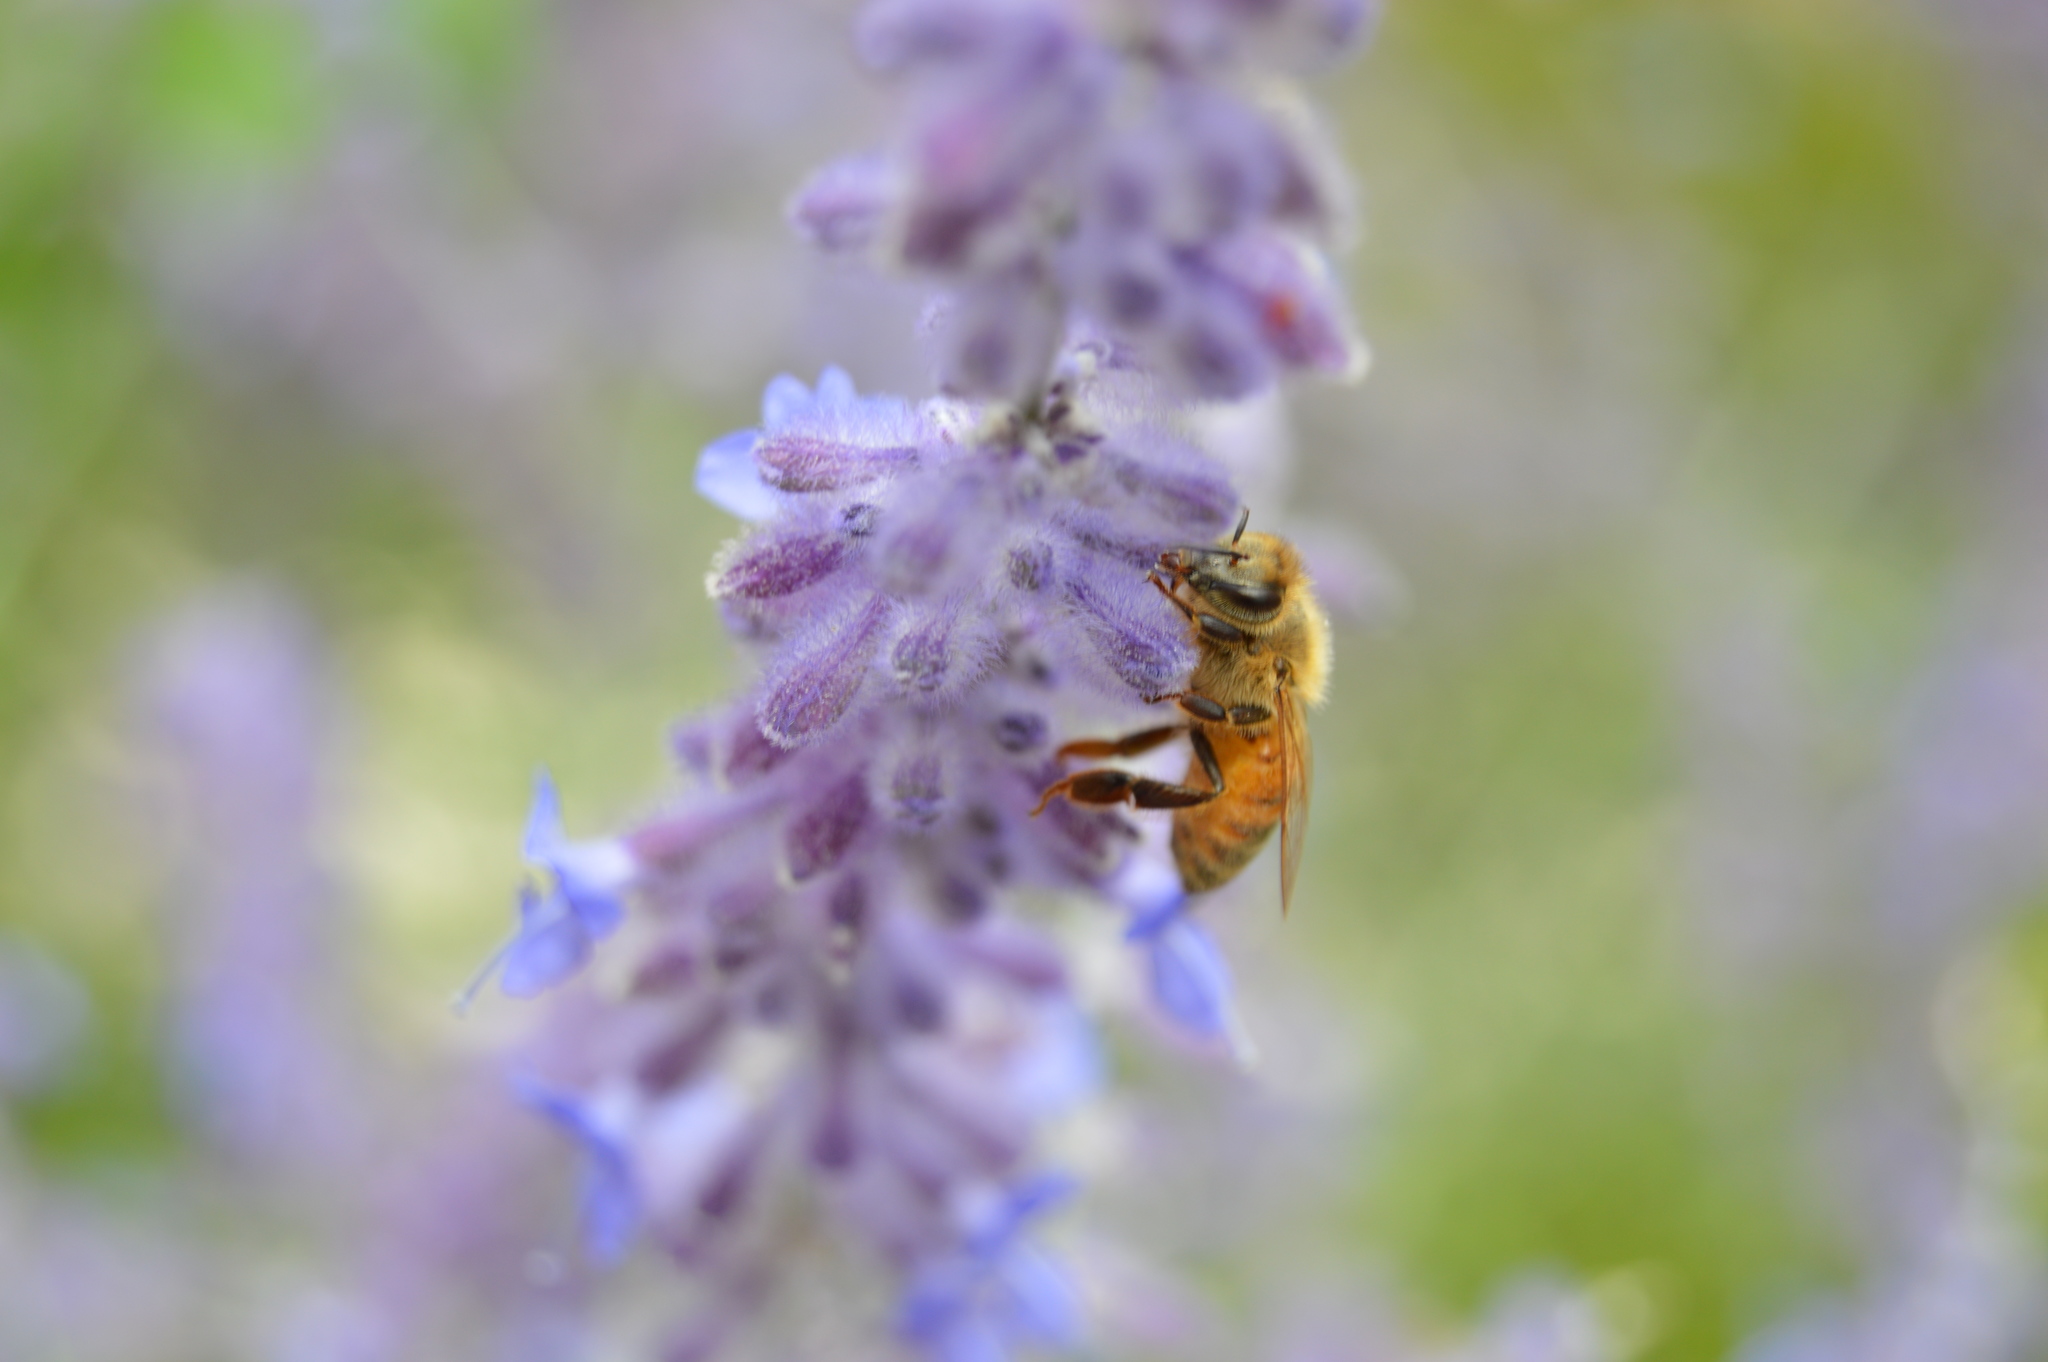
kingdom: Animalia
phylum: Arthropoda
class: Insecta
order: Hymenoptera
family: Apidae
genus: Apis
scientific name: Apis mellifera
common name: Honey bee
